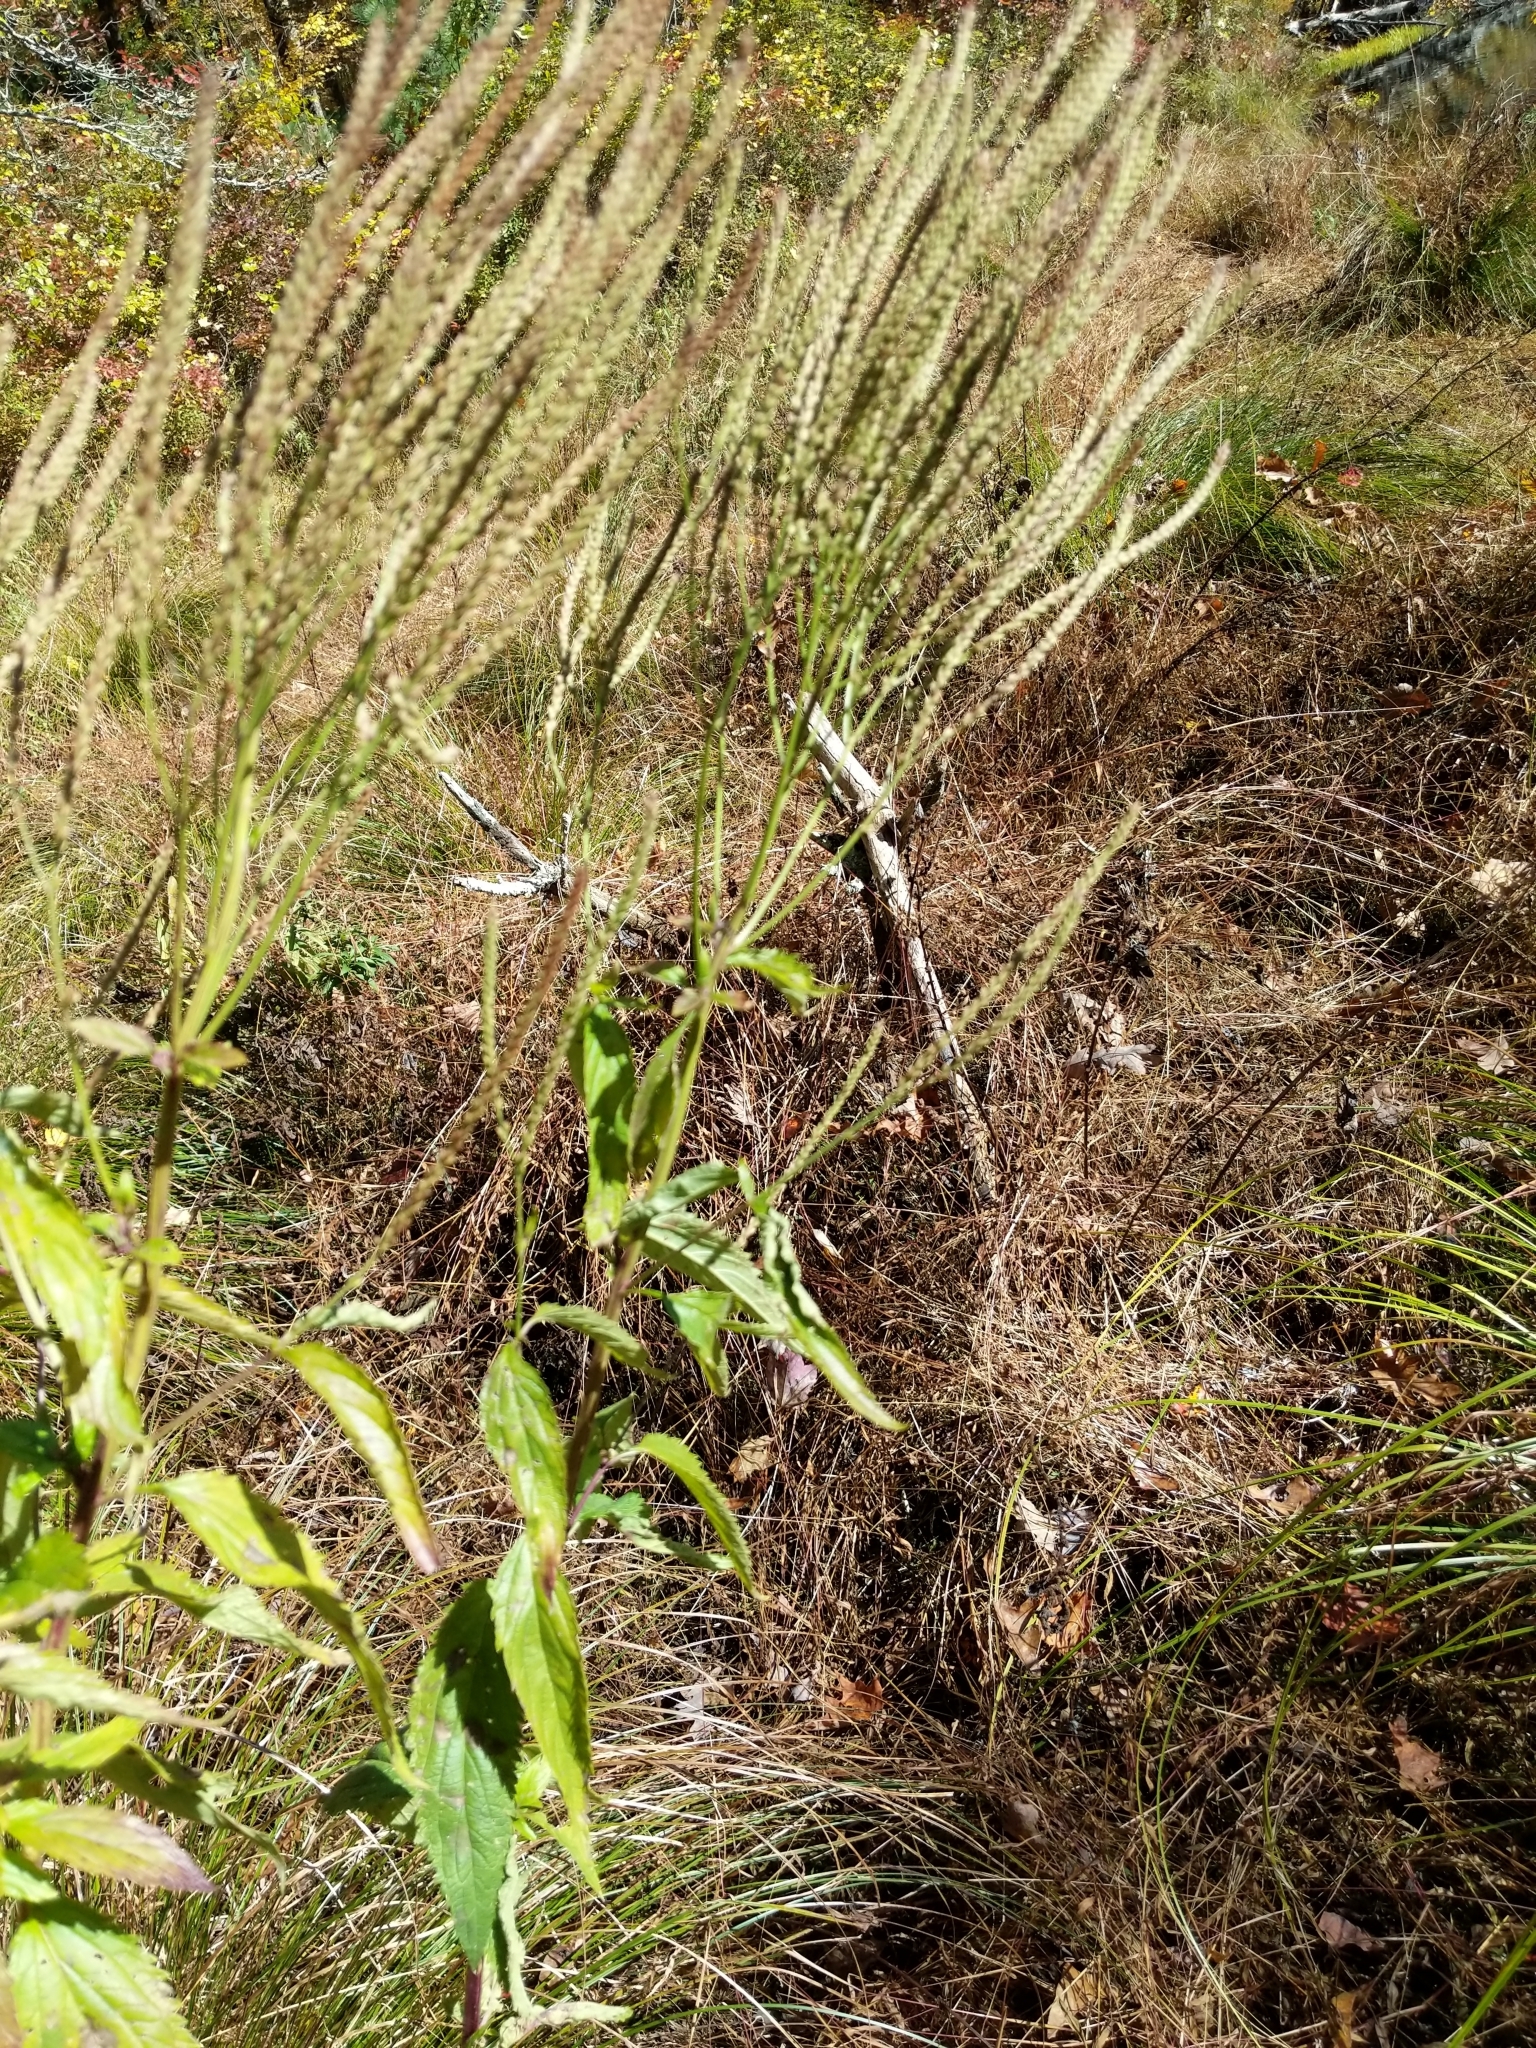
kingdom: Plantae
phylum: Tracheophyta
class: Magnoliopsida
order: Lamiales
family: Verbenaceae
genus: Verbena
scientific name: Verbena hastata
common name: American blue vervain
